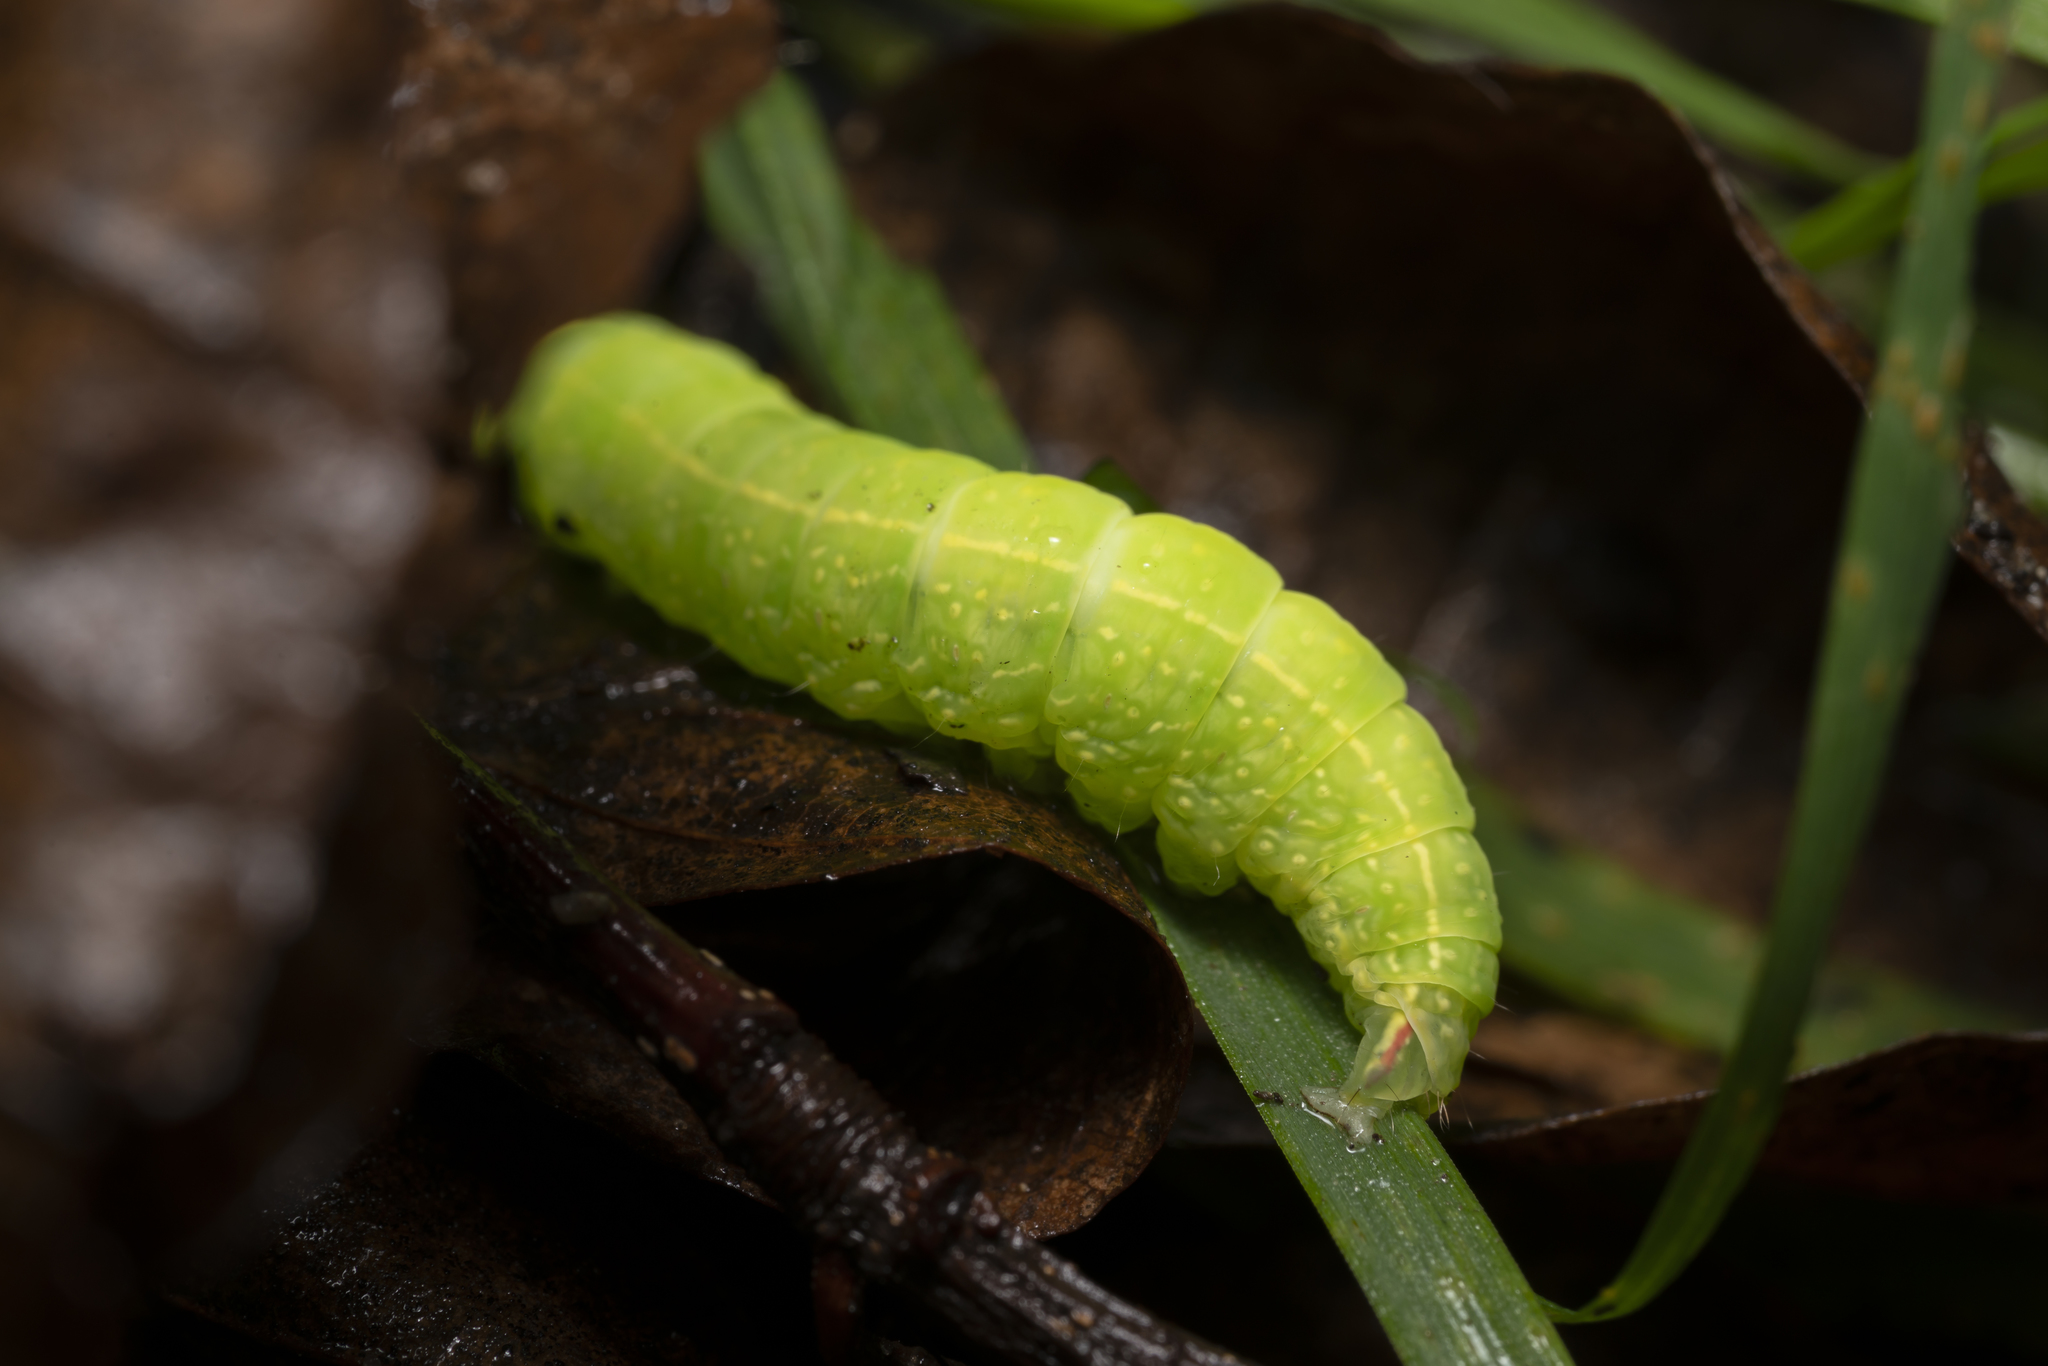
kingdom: Animalia
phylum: Arthropoda
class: Insecta
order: Lepidoptera
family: Nolidae
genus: Pseudoips
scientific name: Pseudoips prasinana
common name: Green silver-lines
